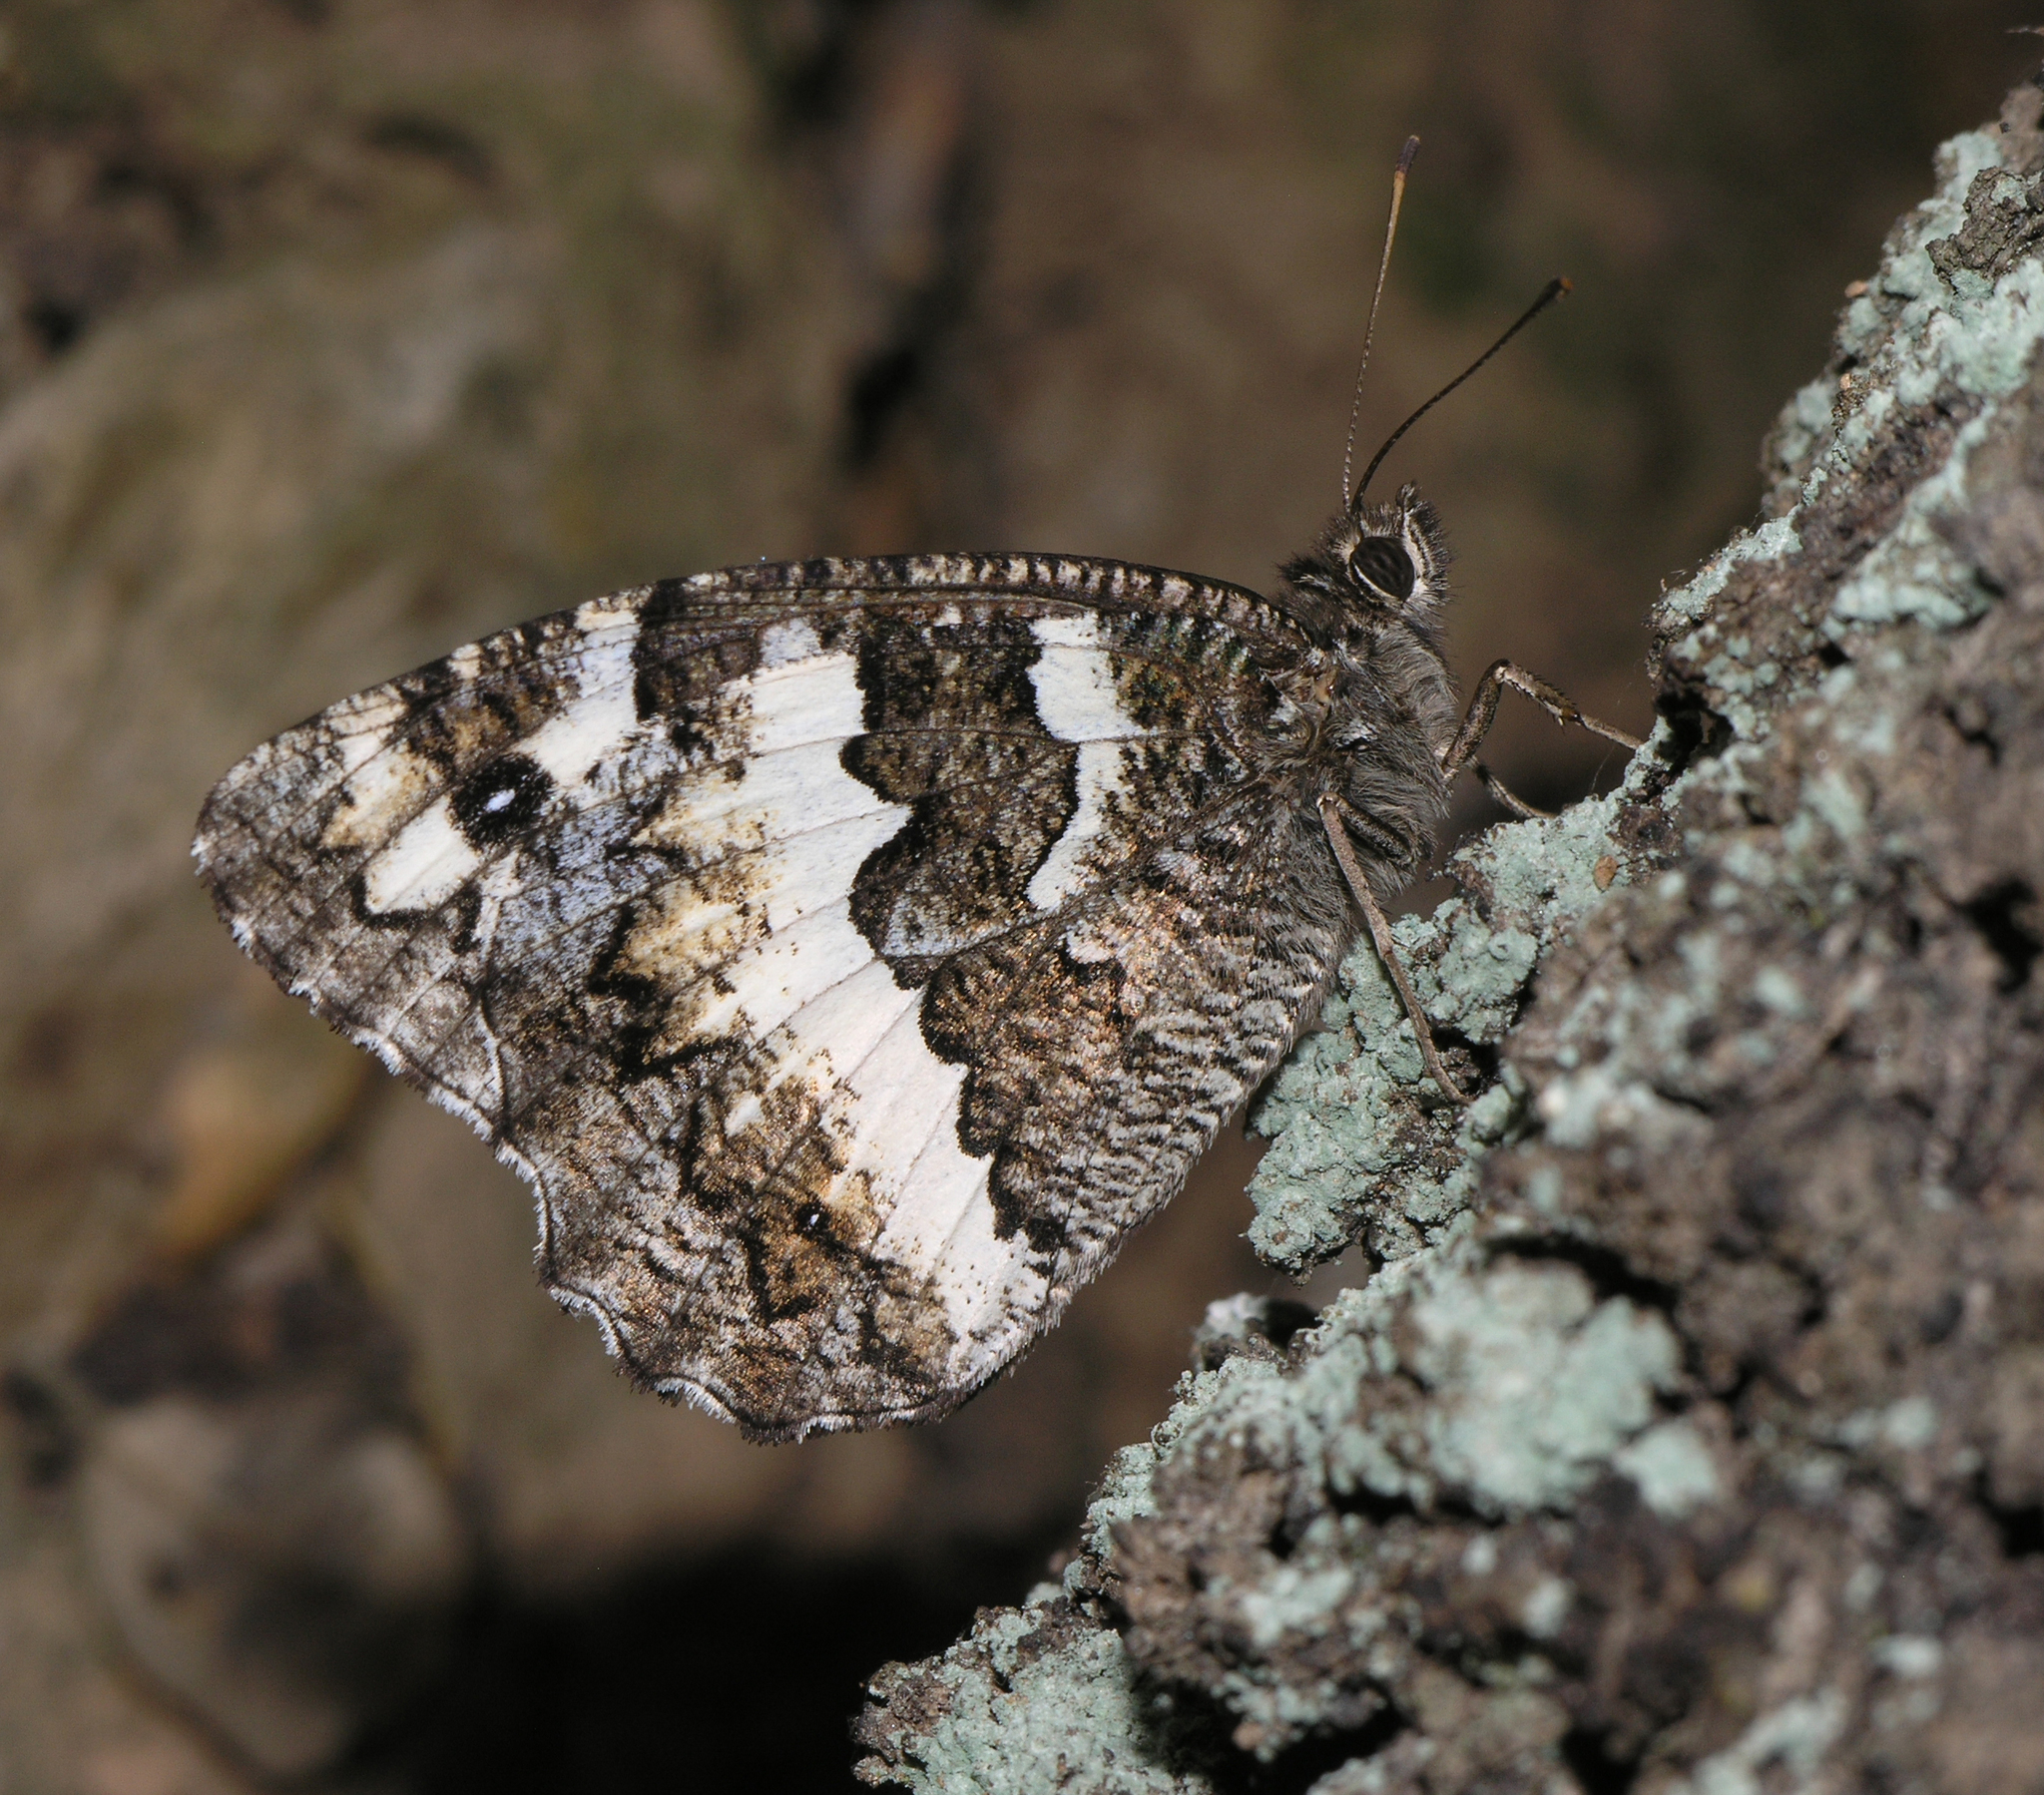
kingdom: Animalia
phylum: Arthropoda
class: Insecta
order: Lepidoptera
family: Lycaenidae
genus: Loweia
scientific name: Loweia tityrus
